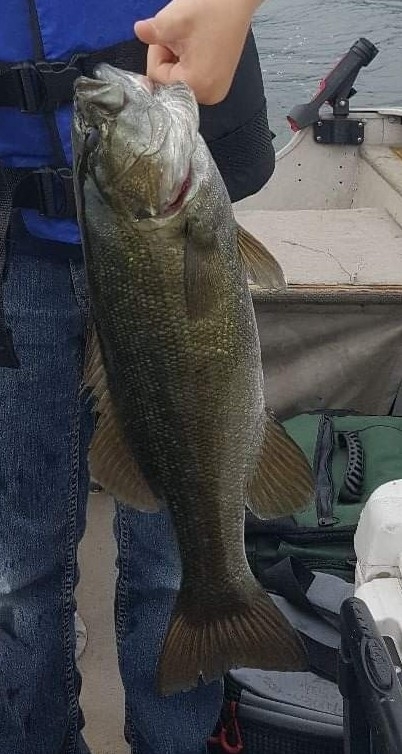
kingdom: Animalia
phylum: Chordata
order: Perciformes
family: Centrarchidae
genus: Micropterus
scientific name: Micropterus dolomieu
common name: Smallmouth bass
